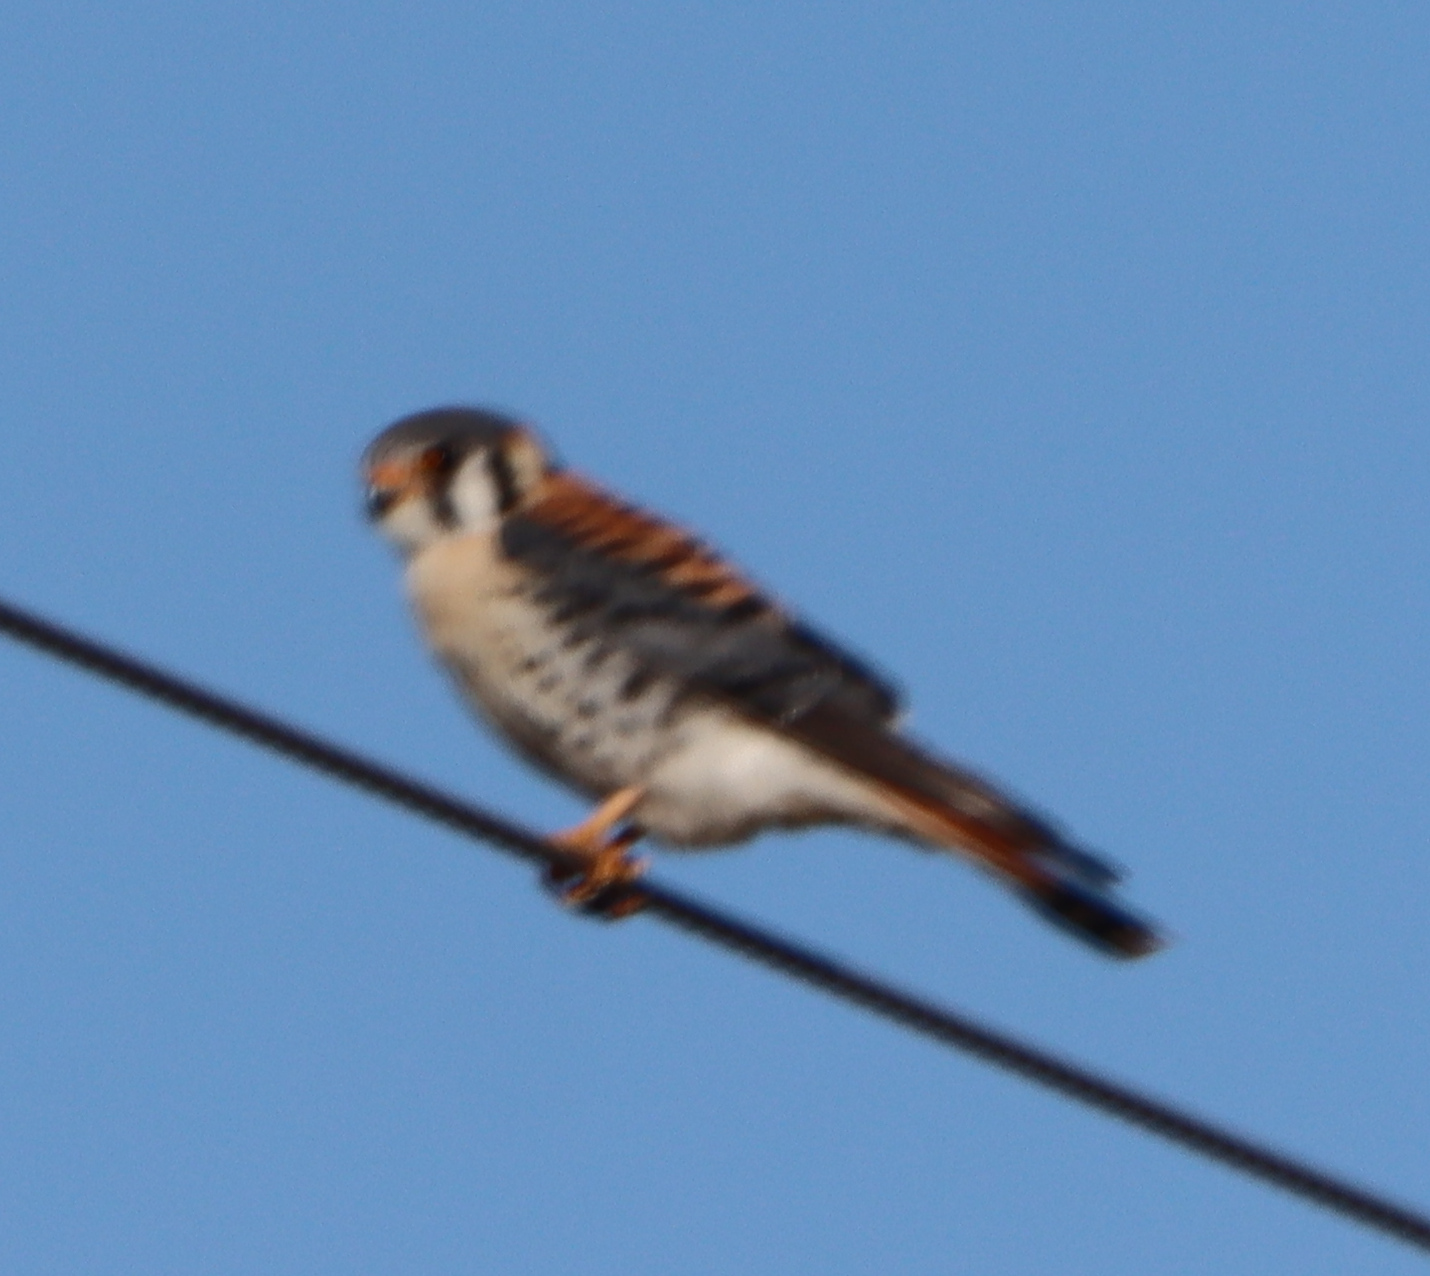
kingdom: Animalia
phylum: Chordata
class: Aves
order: Falconiformes
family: Falconidae
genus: Falco
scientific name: Falco sparverius
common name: American kestrel
